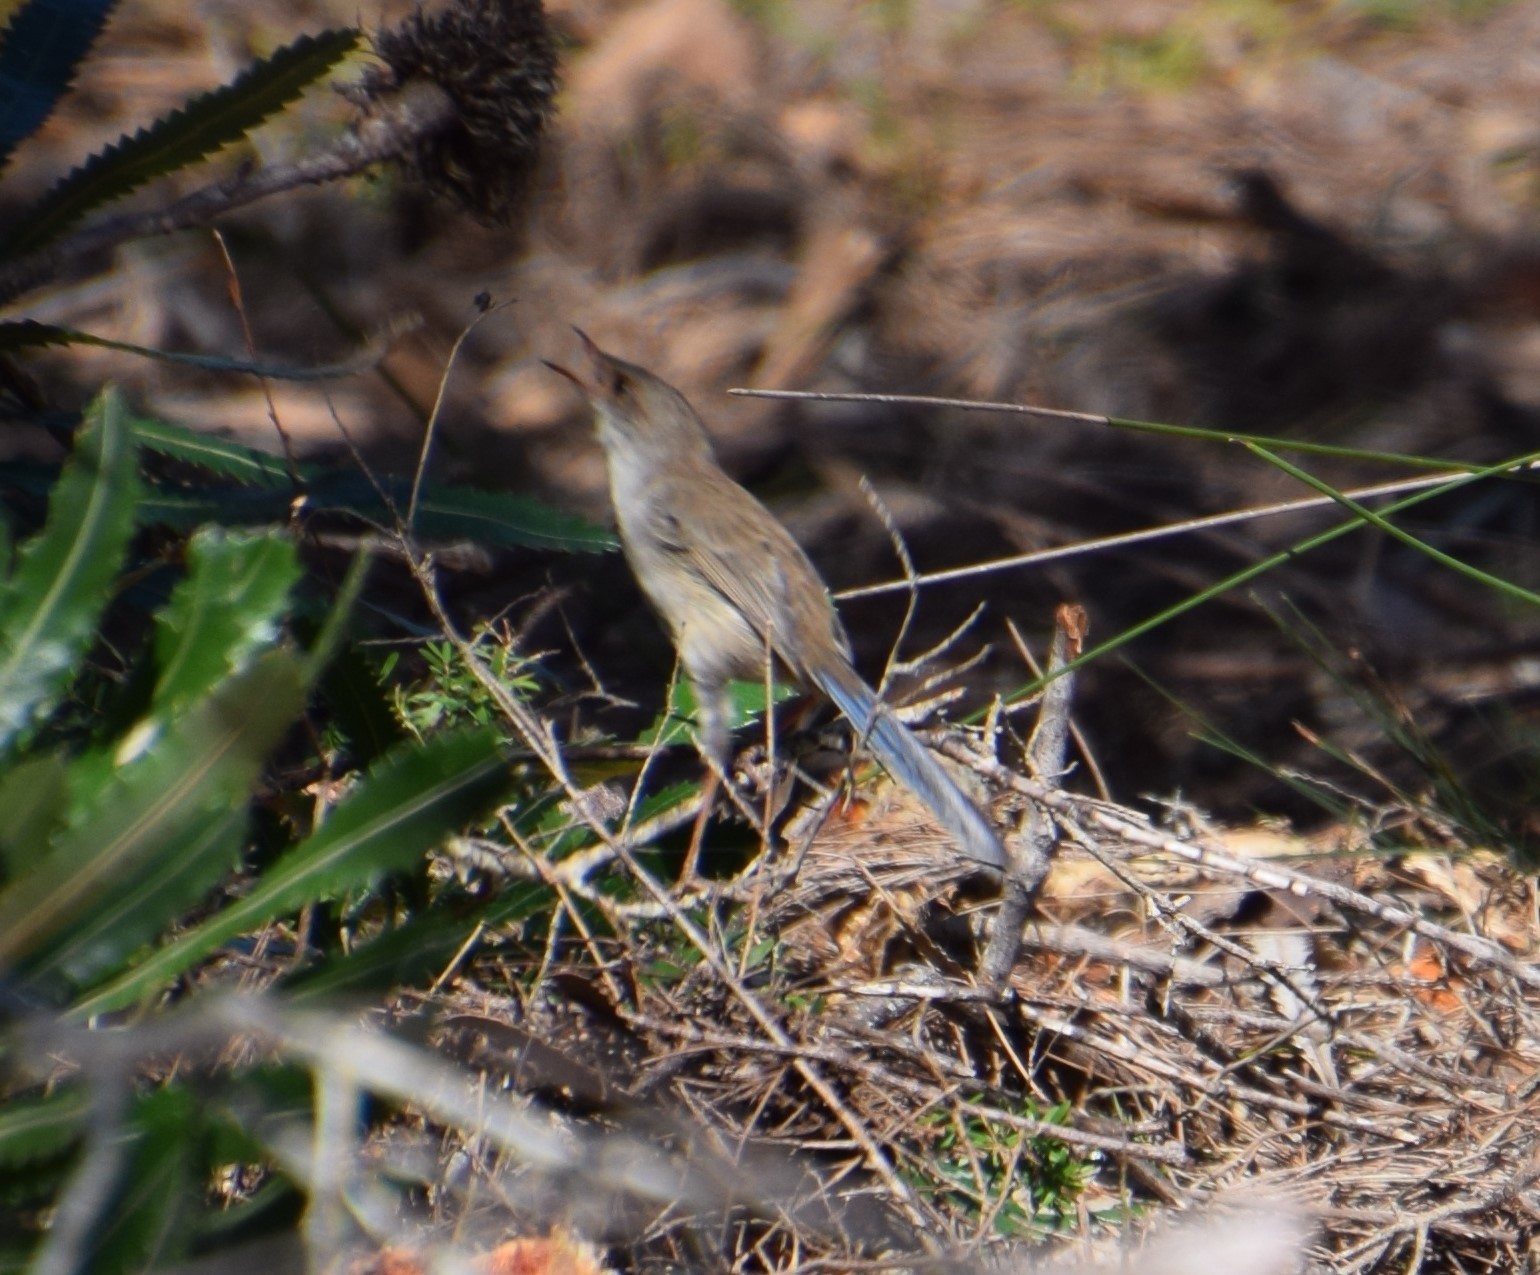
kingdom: Animalia
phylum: Chordata
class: Aves
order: Passeriformes
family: Maluridae
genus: Malurus
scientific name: Malurus cyaneus
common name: Superb fairywren
